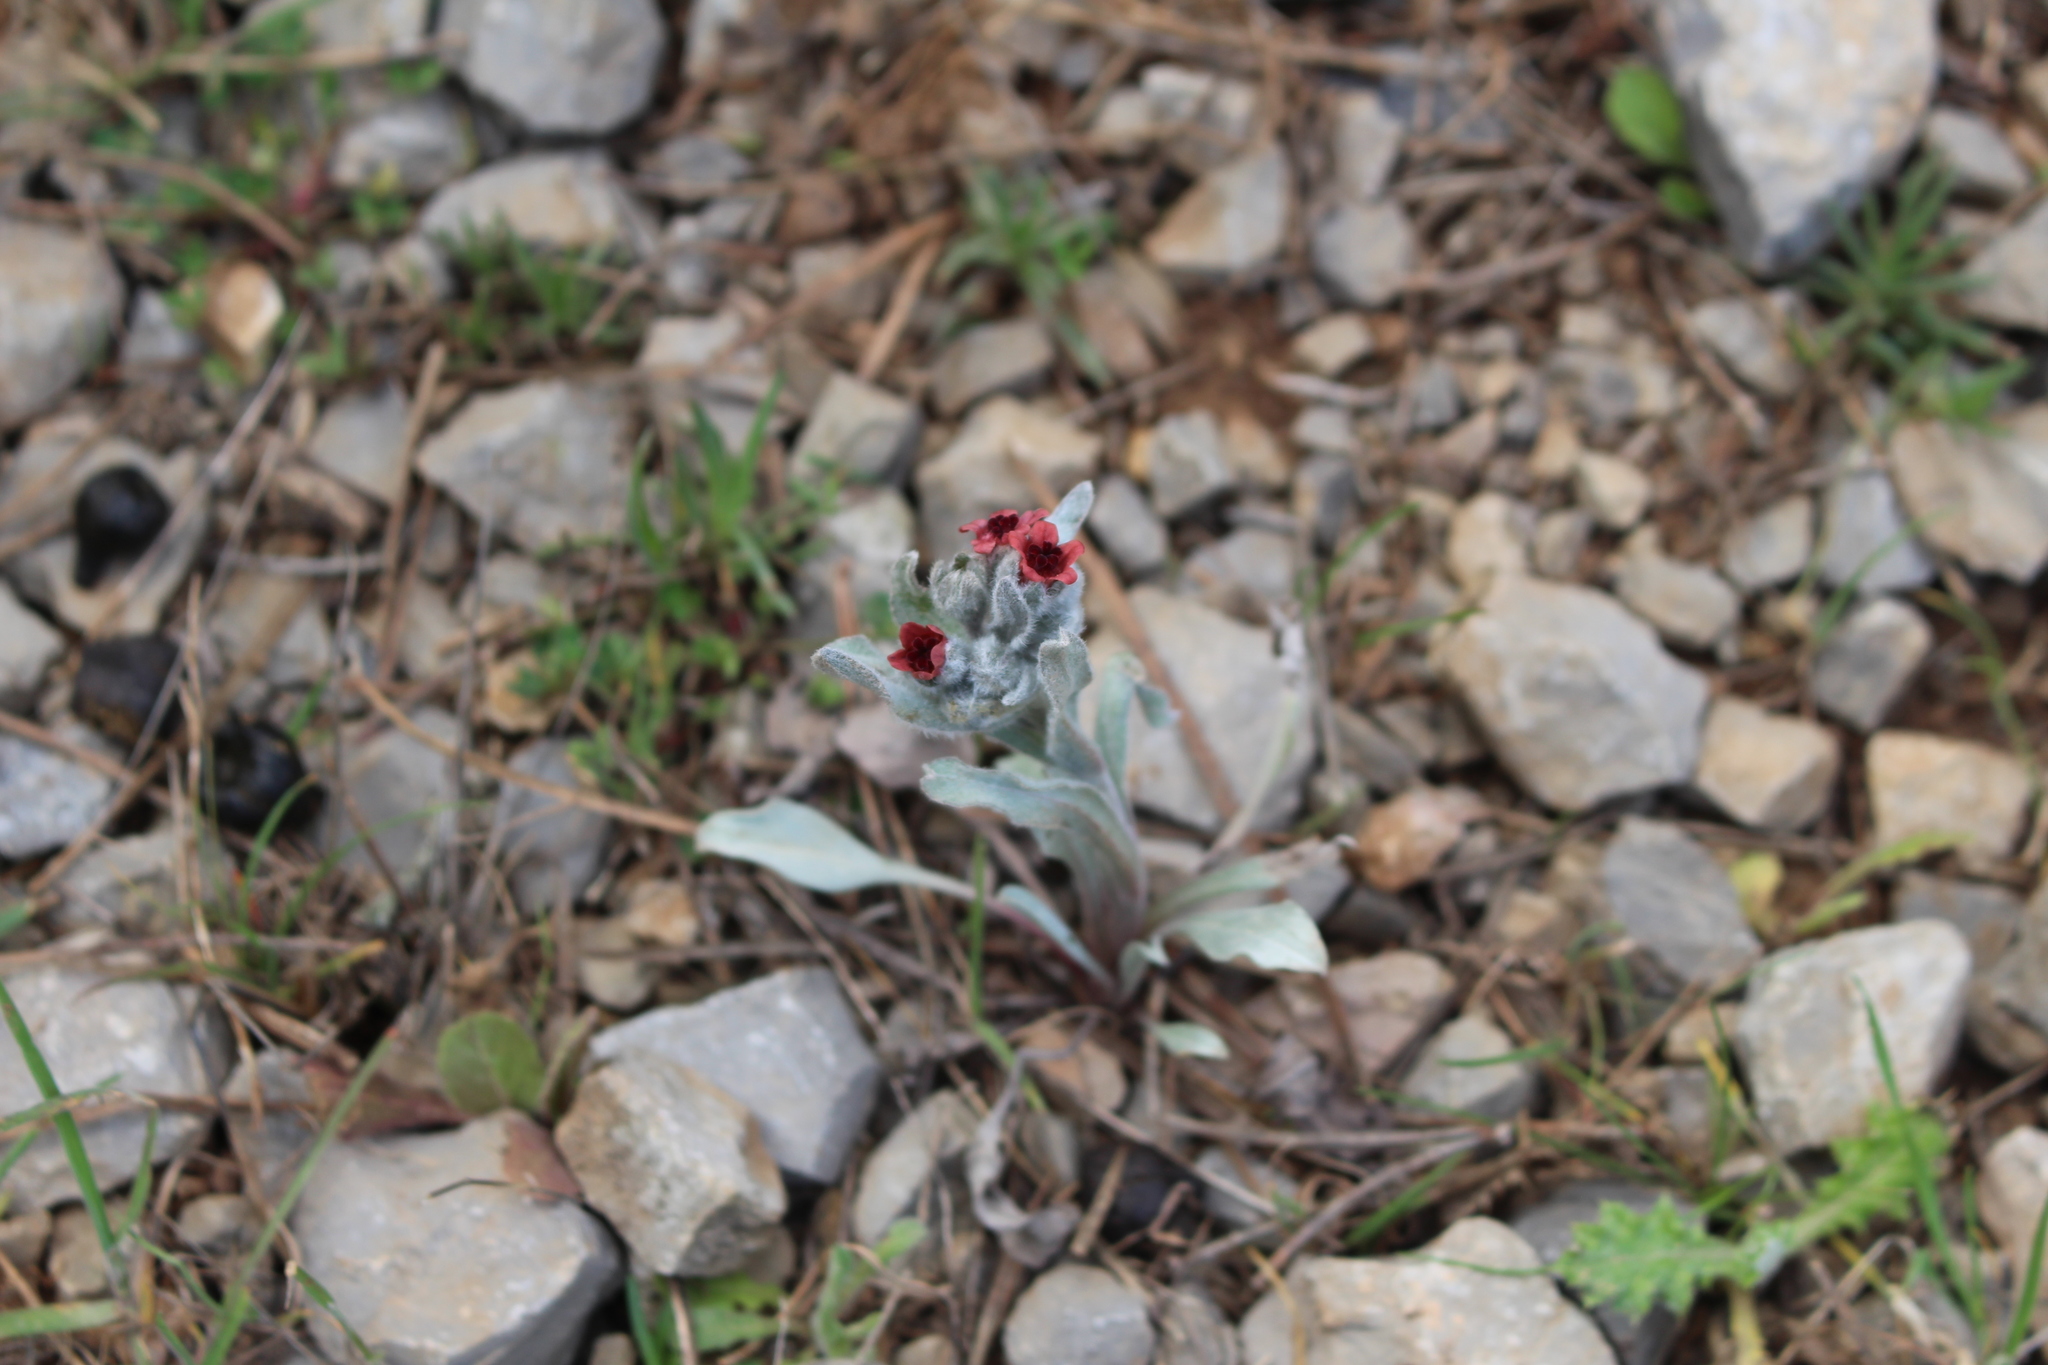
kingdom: Plantae
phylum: Tracheophyta
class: Magnoliopsida
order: Boraginales
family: Boraginaceae
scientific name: Boraginaceae
